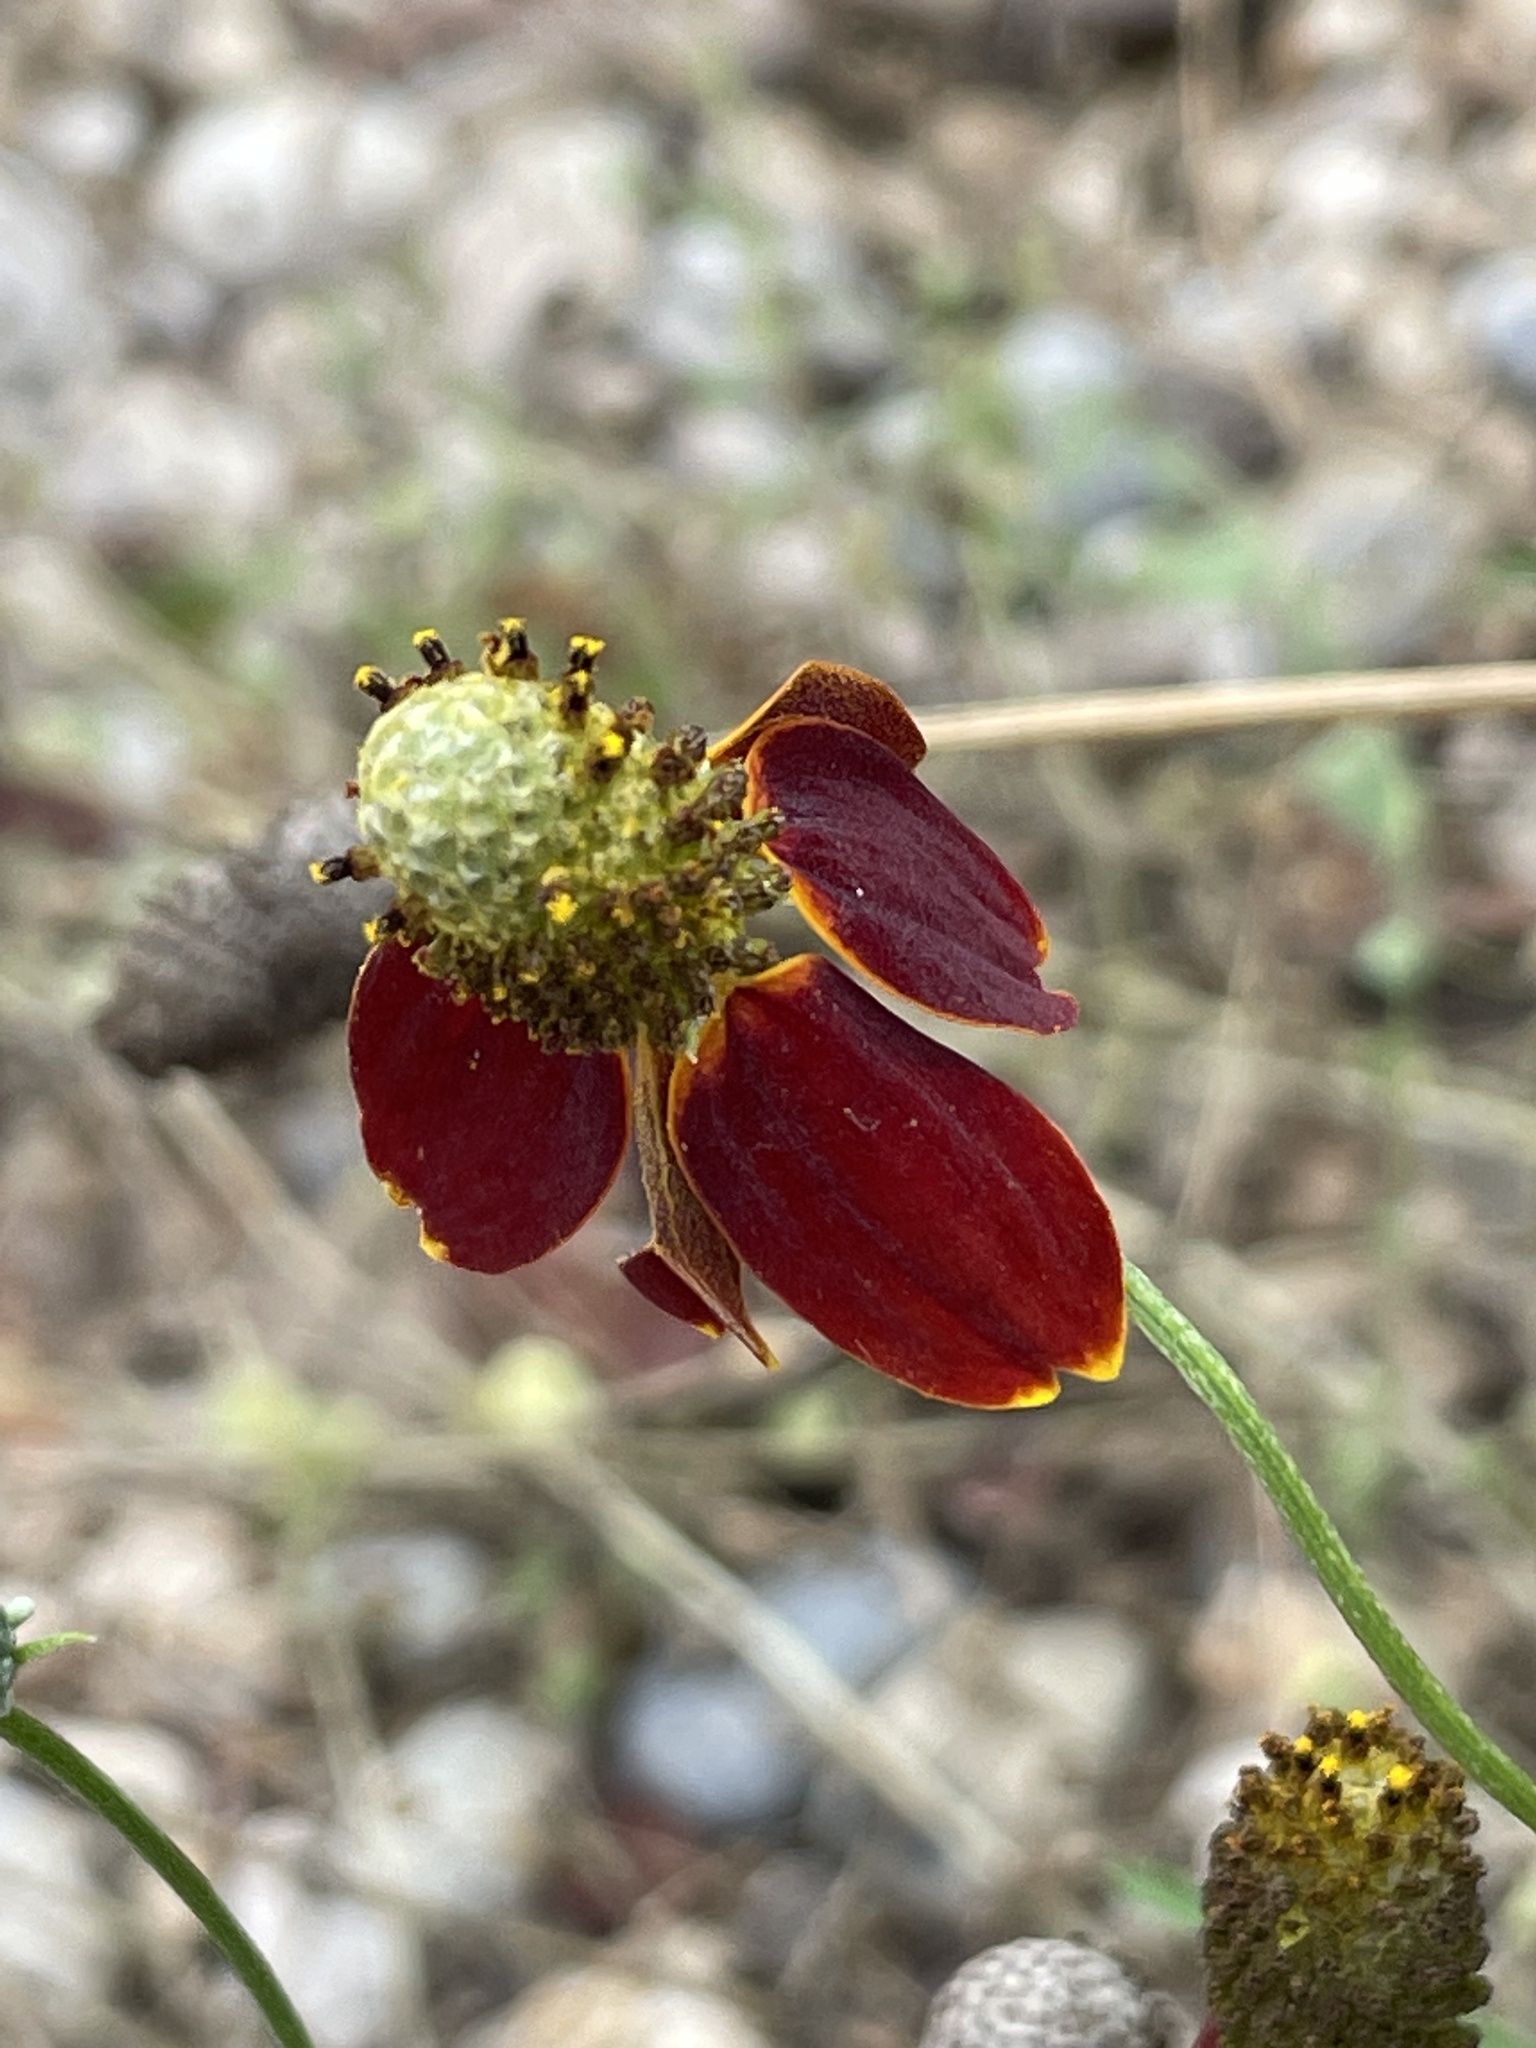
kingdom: Plantae
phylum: Tracheophyta
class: Magnoliopsida
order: Asterales
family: Asteraceae
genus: Ratibida
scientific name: Ratibida columnifera
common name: Prairie coneflower
